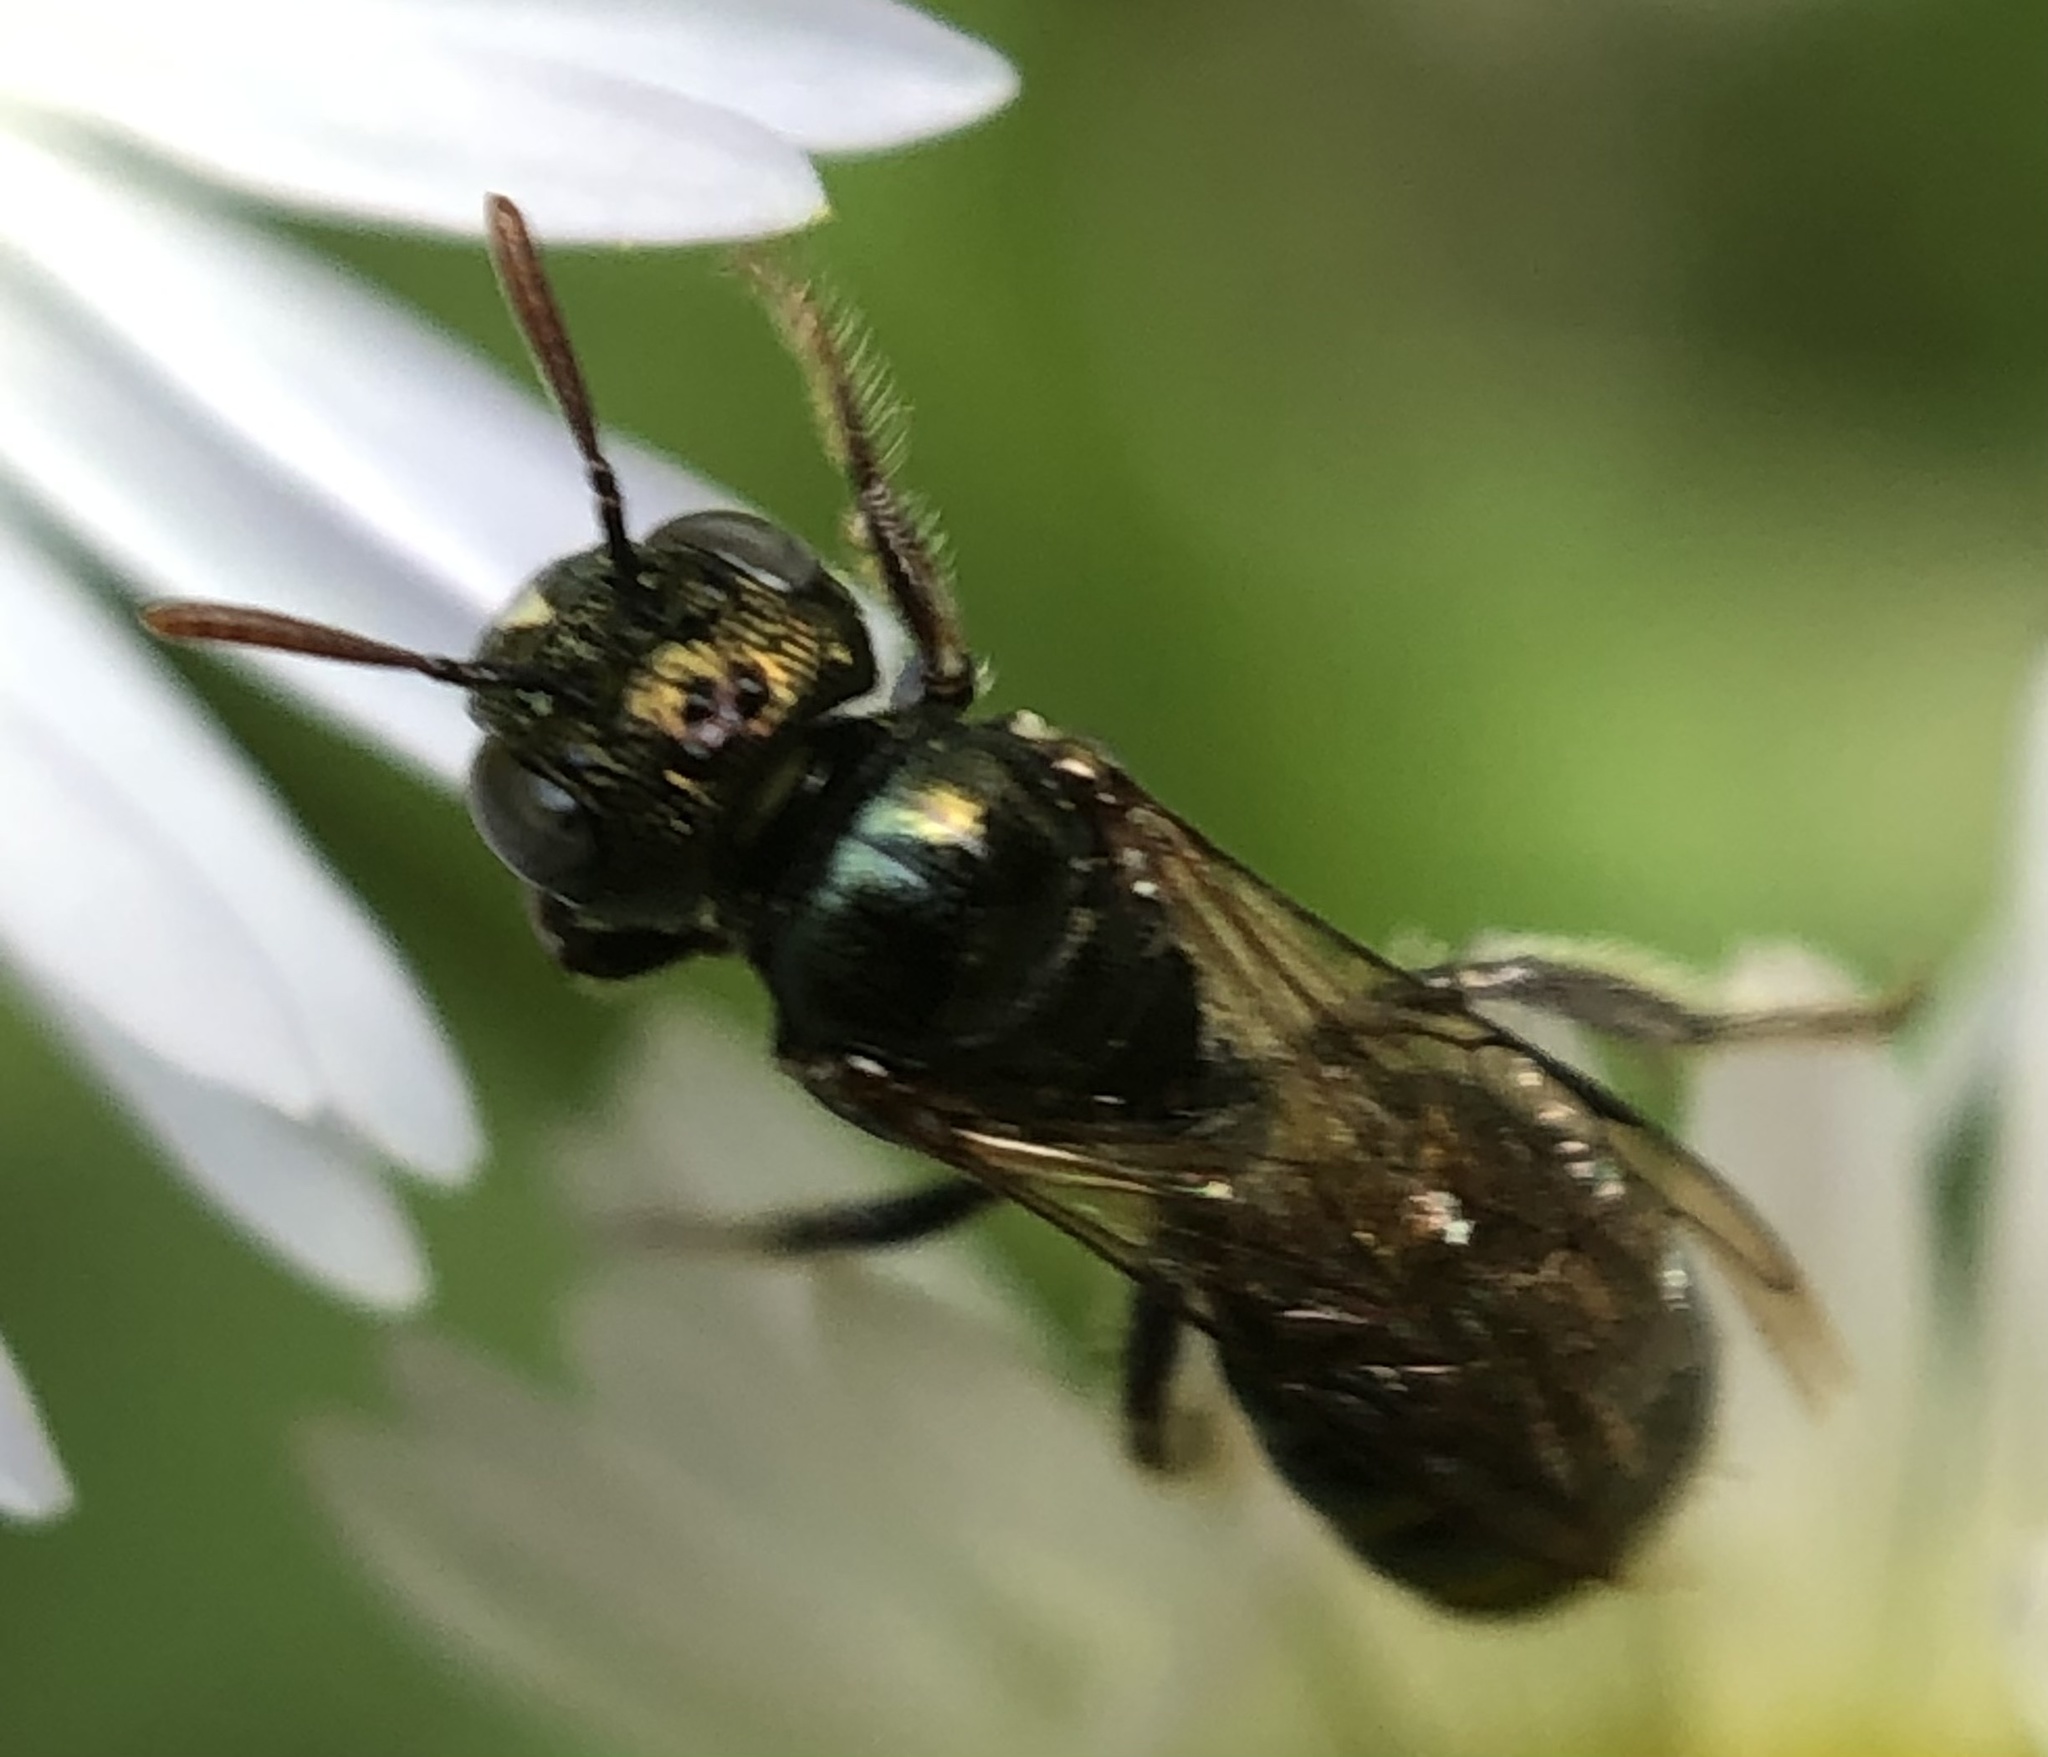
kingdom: Animalia
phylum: Arthropoda
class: Insecta
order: Hymenoptera
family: Apidae
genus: Ceratina
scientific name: Ceratina strenua
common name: Nimble carpenter bee
